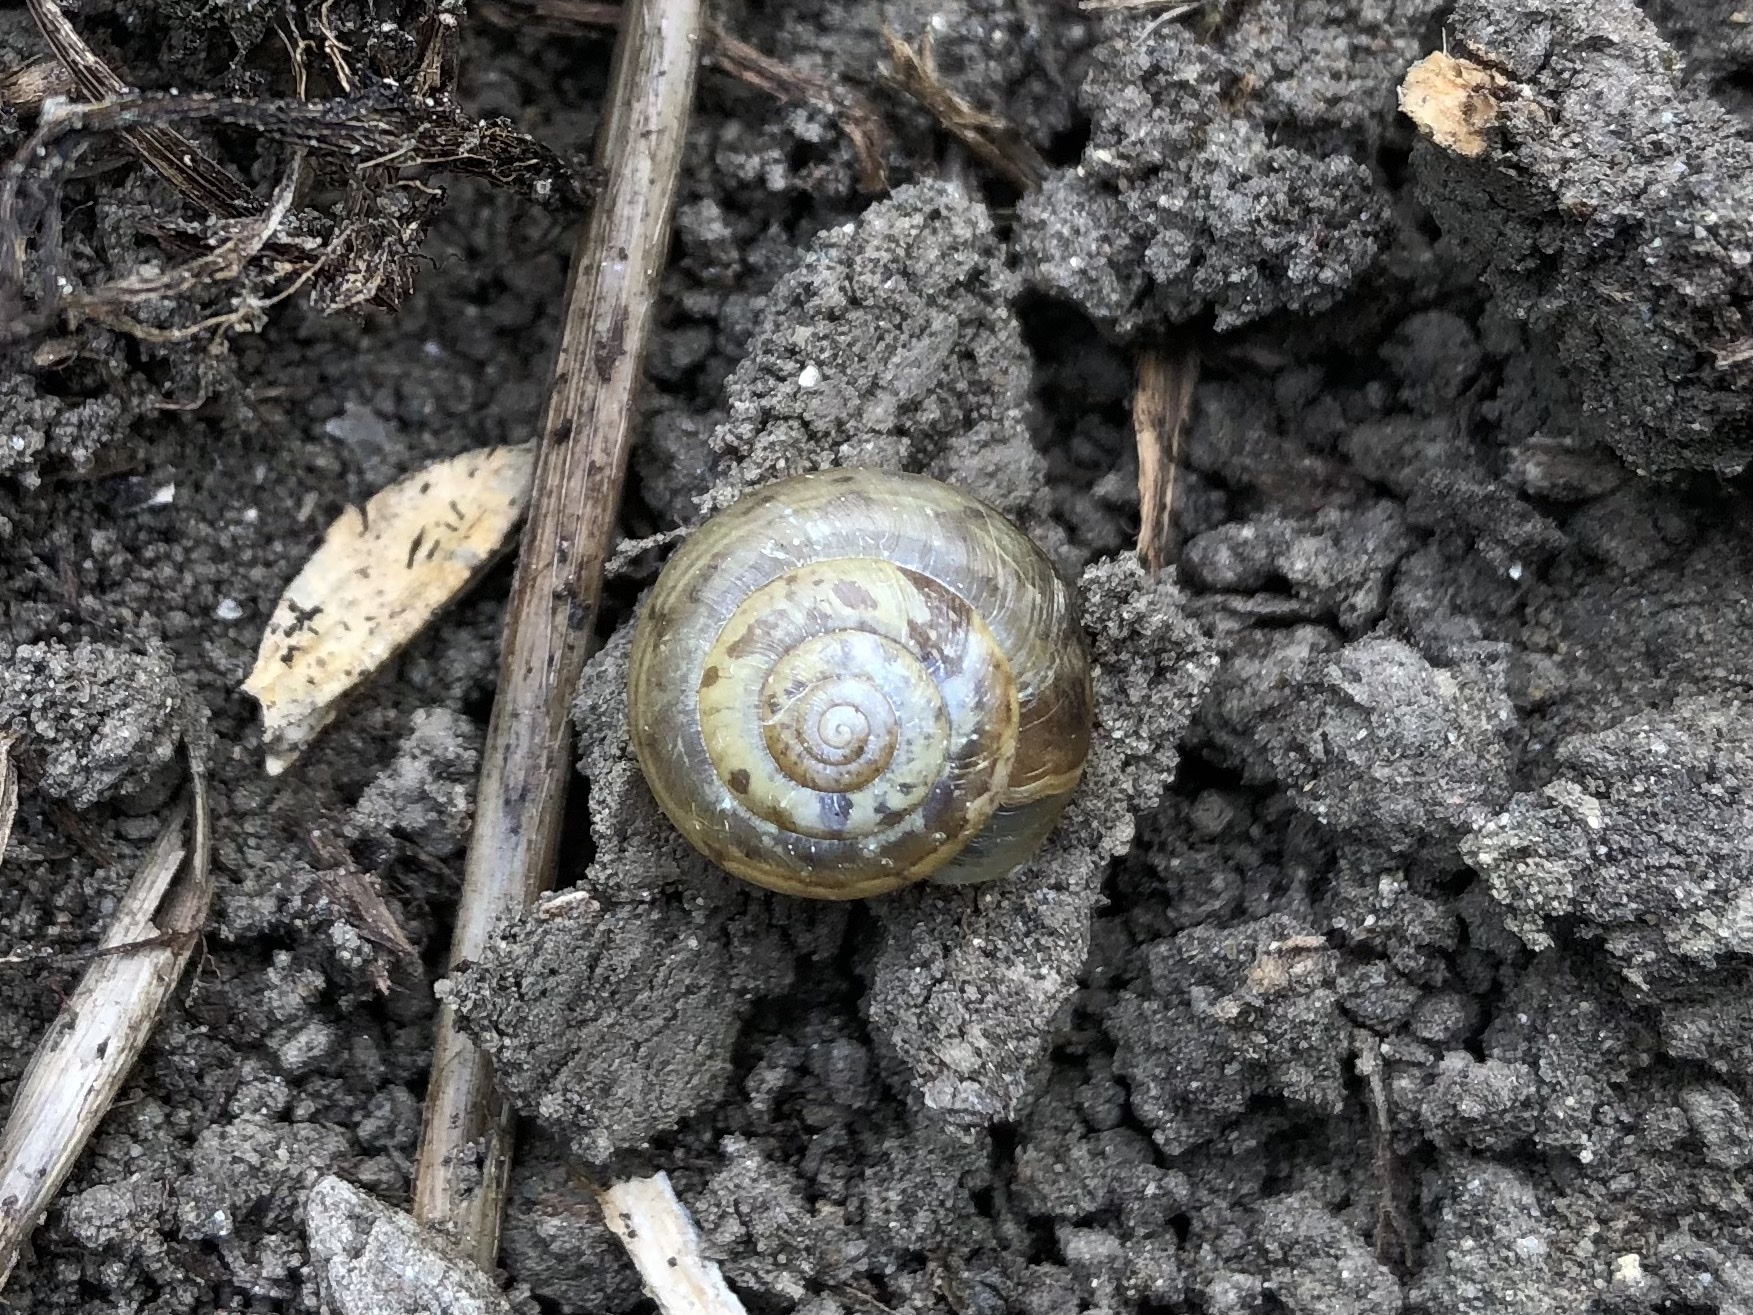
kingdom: Animalia
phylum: Mollusca
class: Gastropoda
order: Stylommatophora
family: Hygromiidae
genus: Urticicola
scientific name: Urticicola umbrosus
